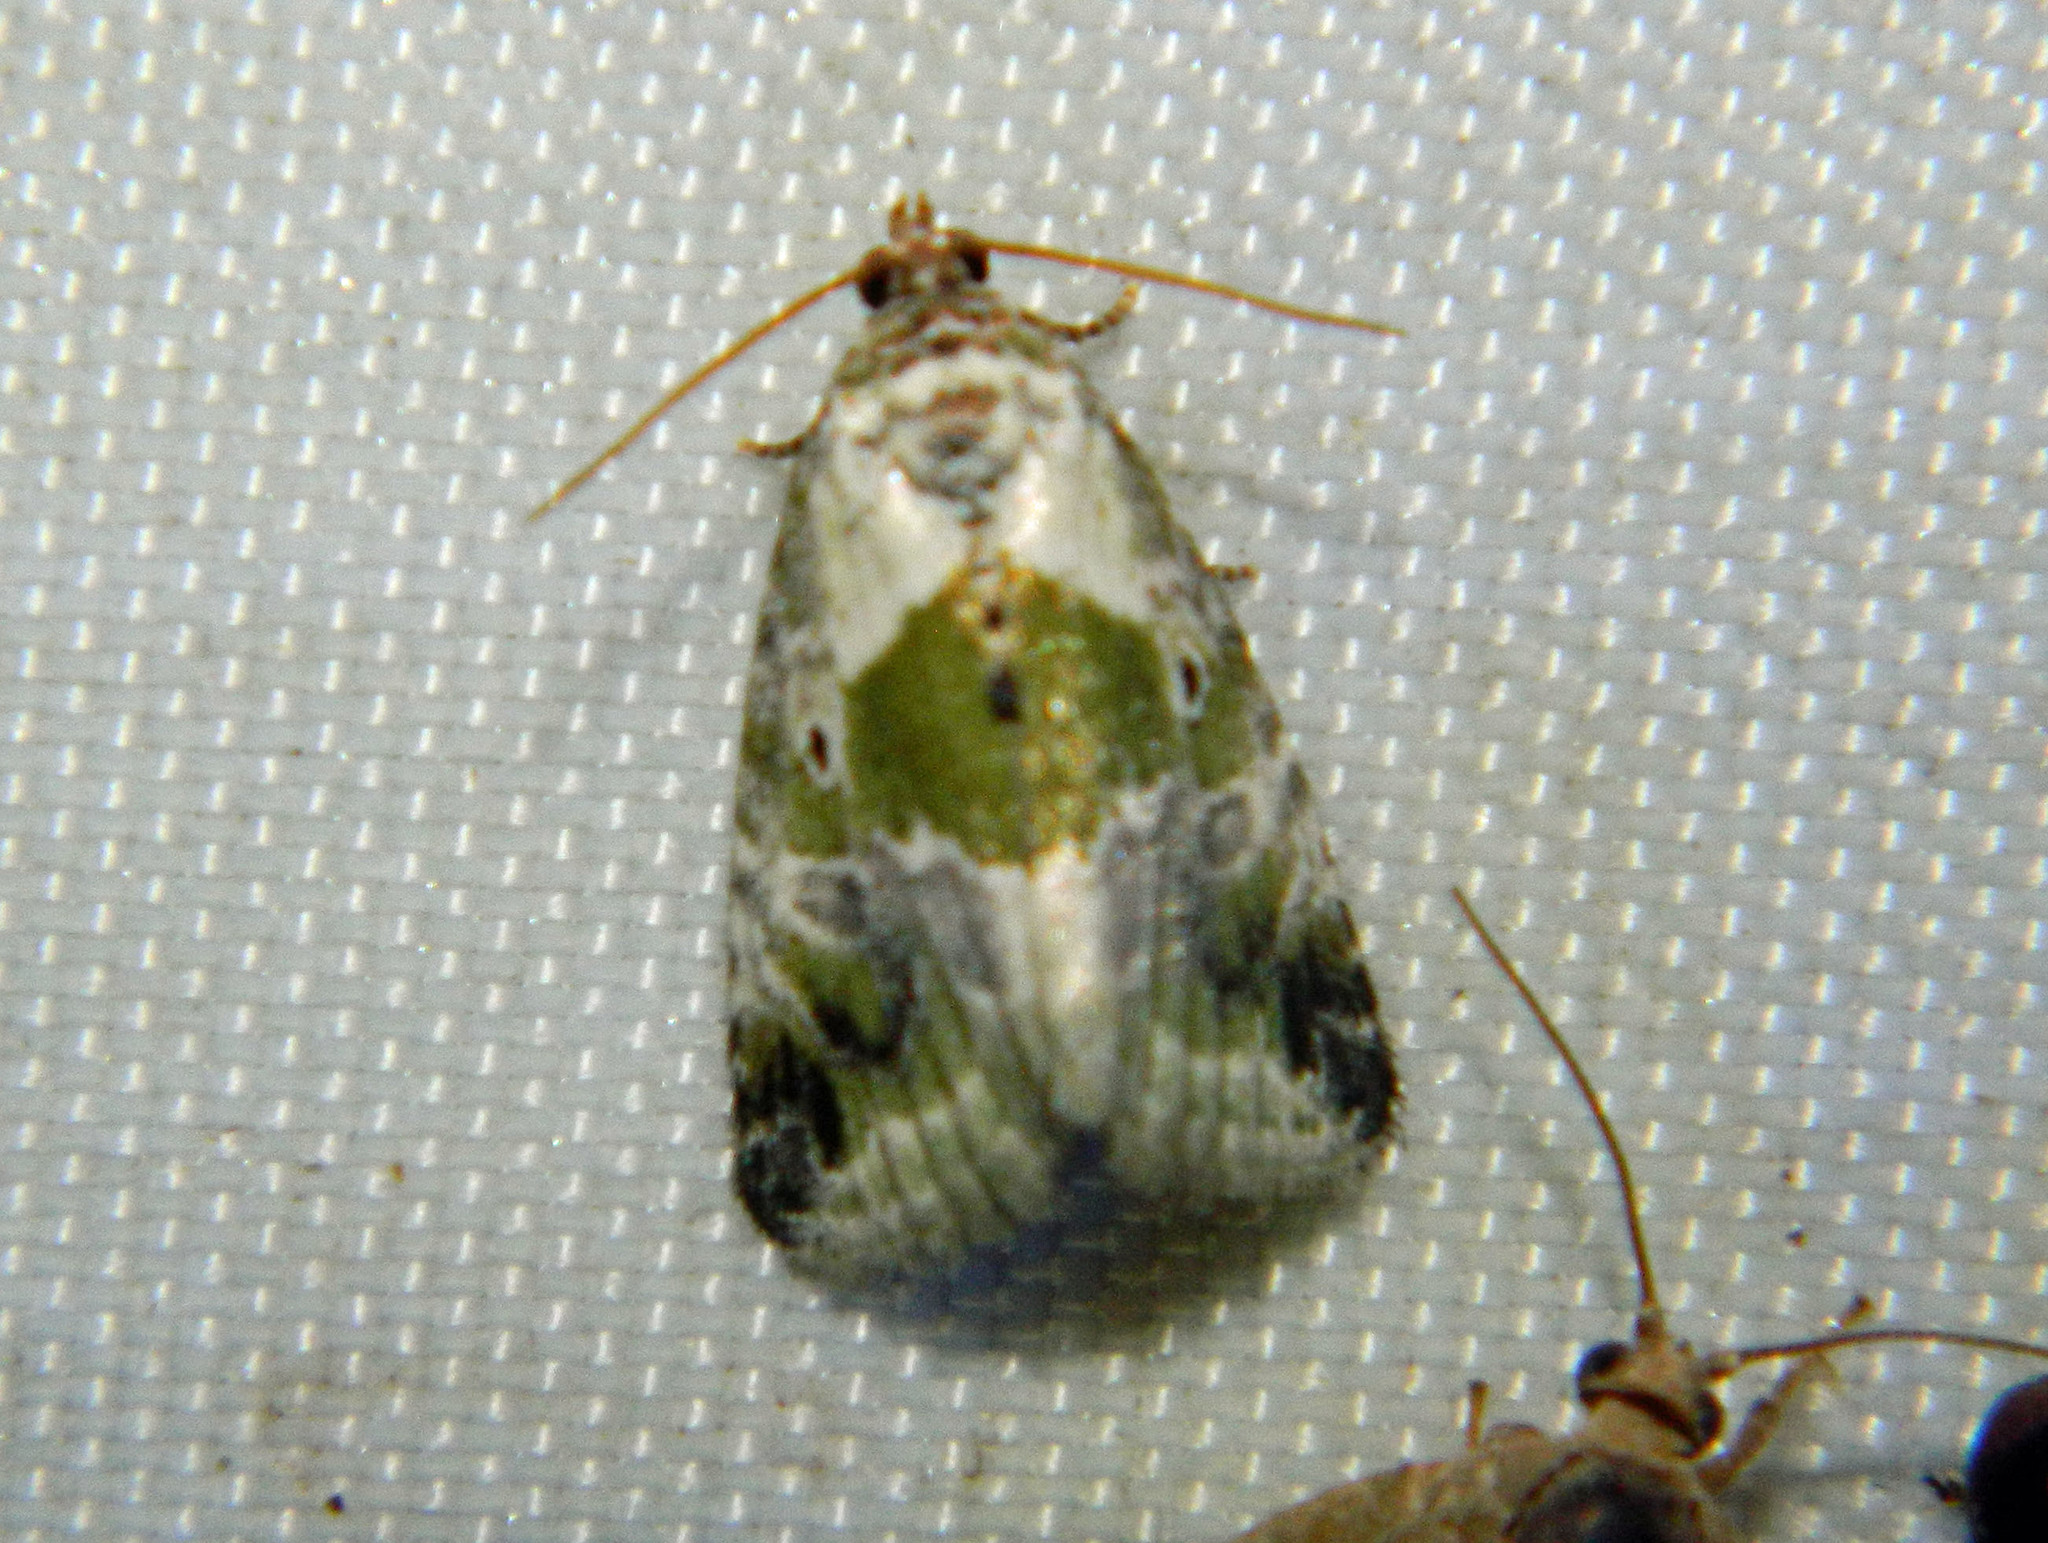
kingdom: Animalia
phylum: Arthropoda
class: Insecta
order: Lepidoptera
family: Noctuidae
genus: Maliattha
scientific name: Maliattha synochitis
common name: Black-dotted glyph
